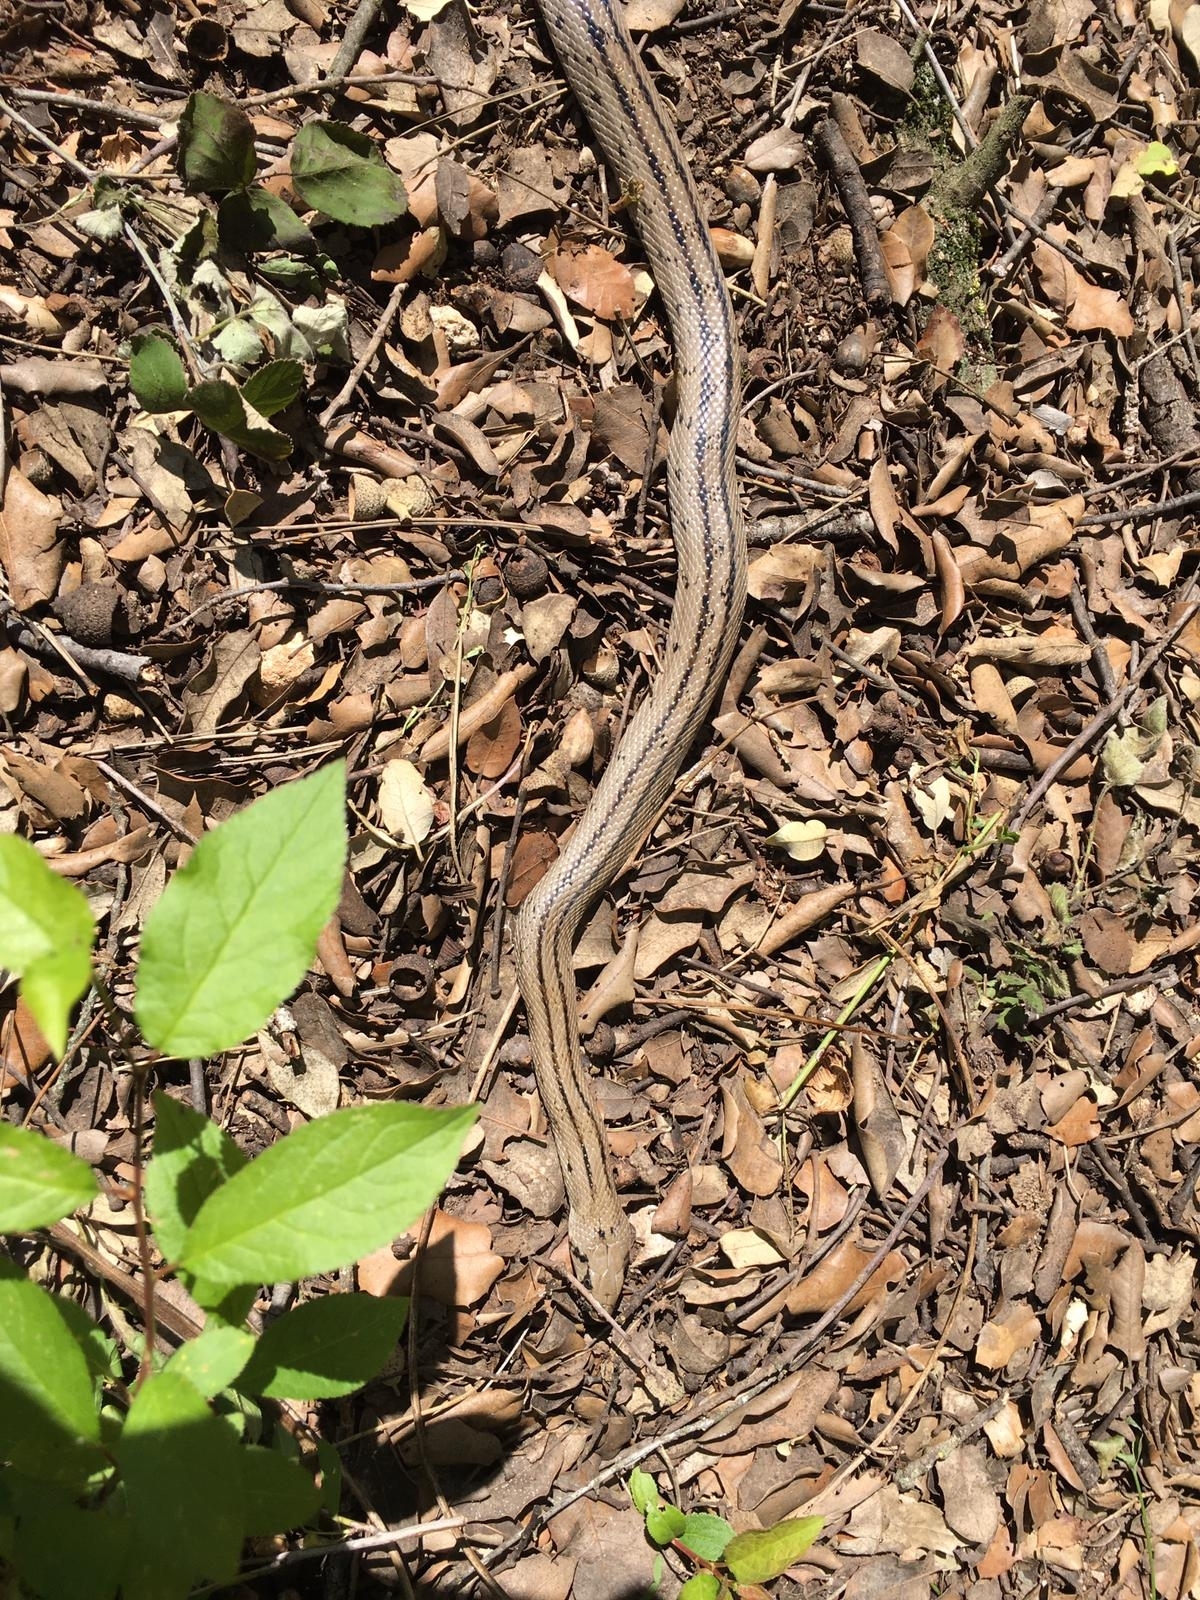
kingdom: Animalia
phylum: Chordata
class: Squamata
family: Colubridae
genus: Zamenis
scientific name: Zamenis scalaris
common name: Ladder snakes
